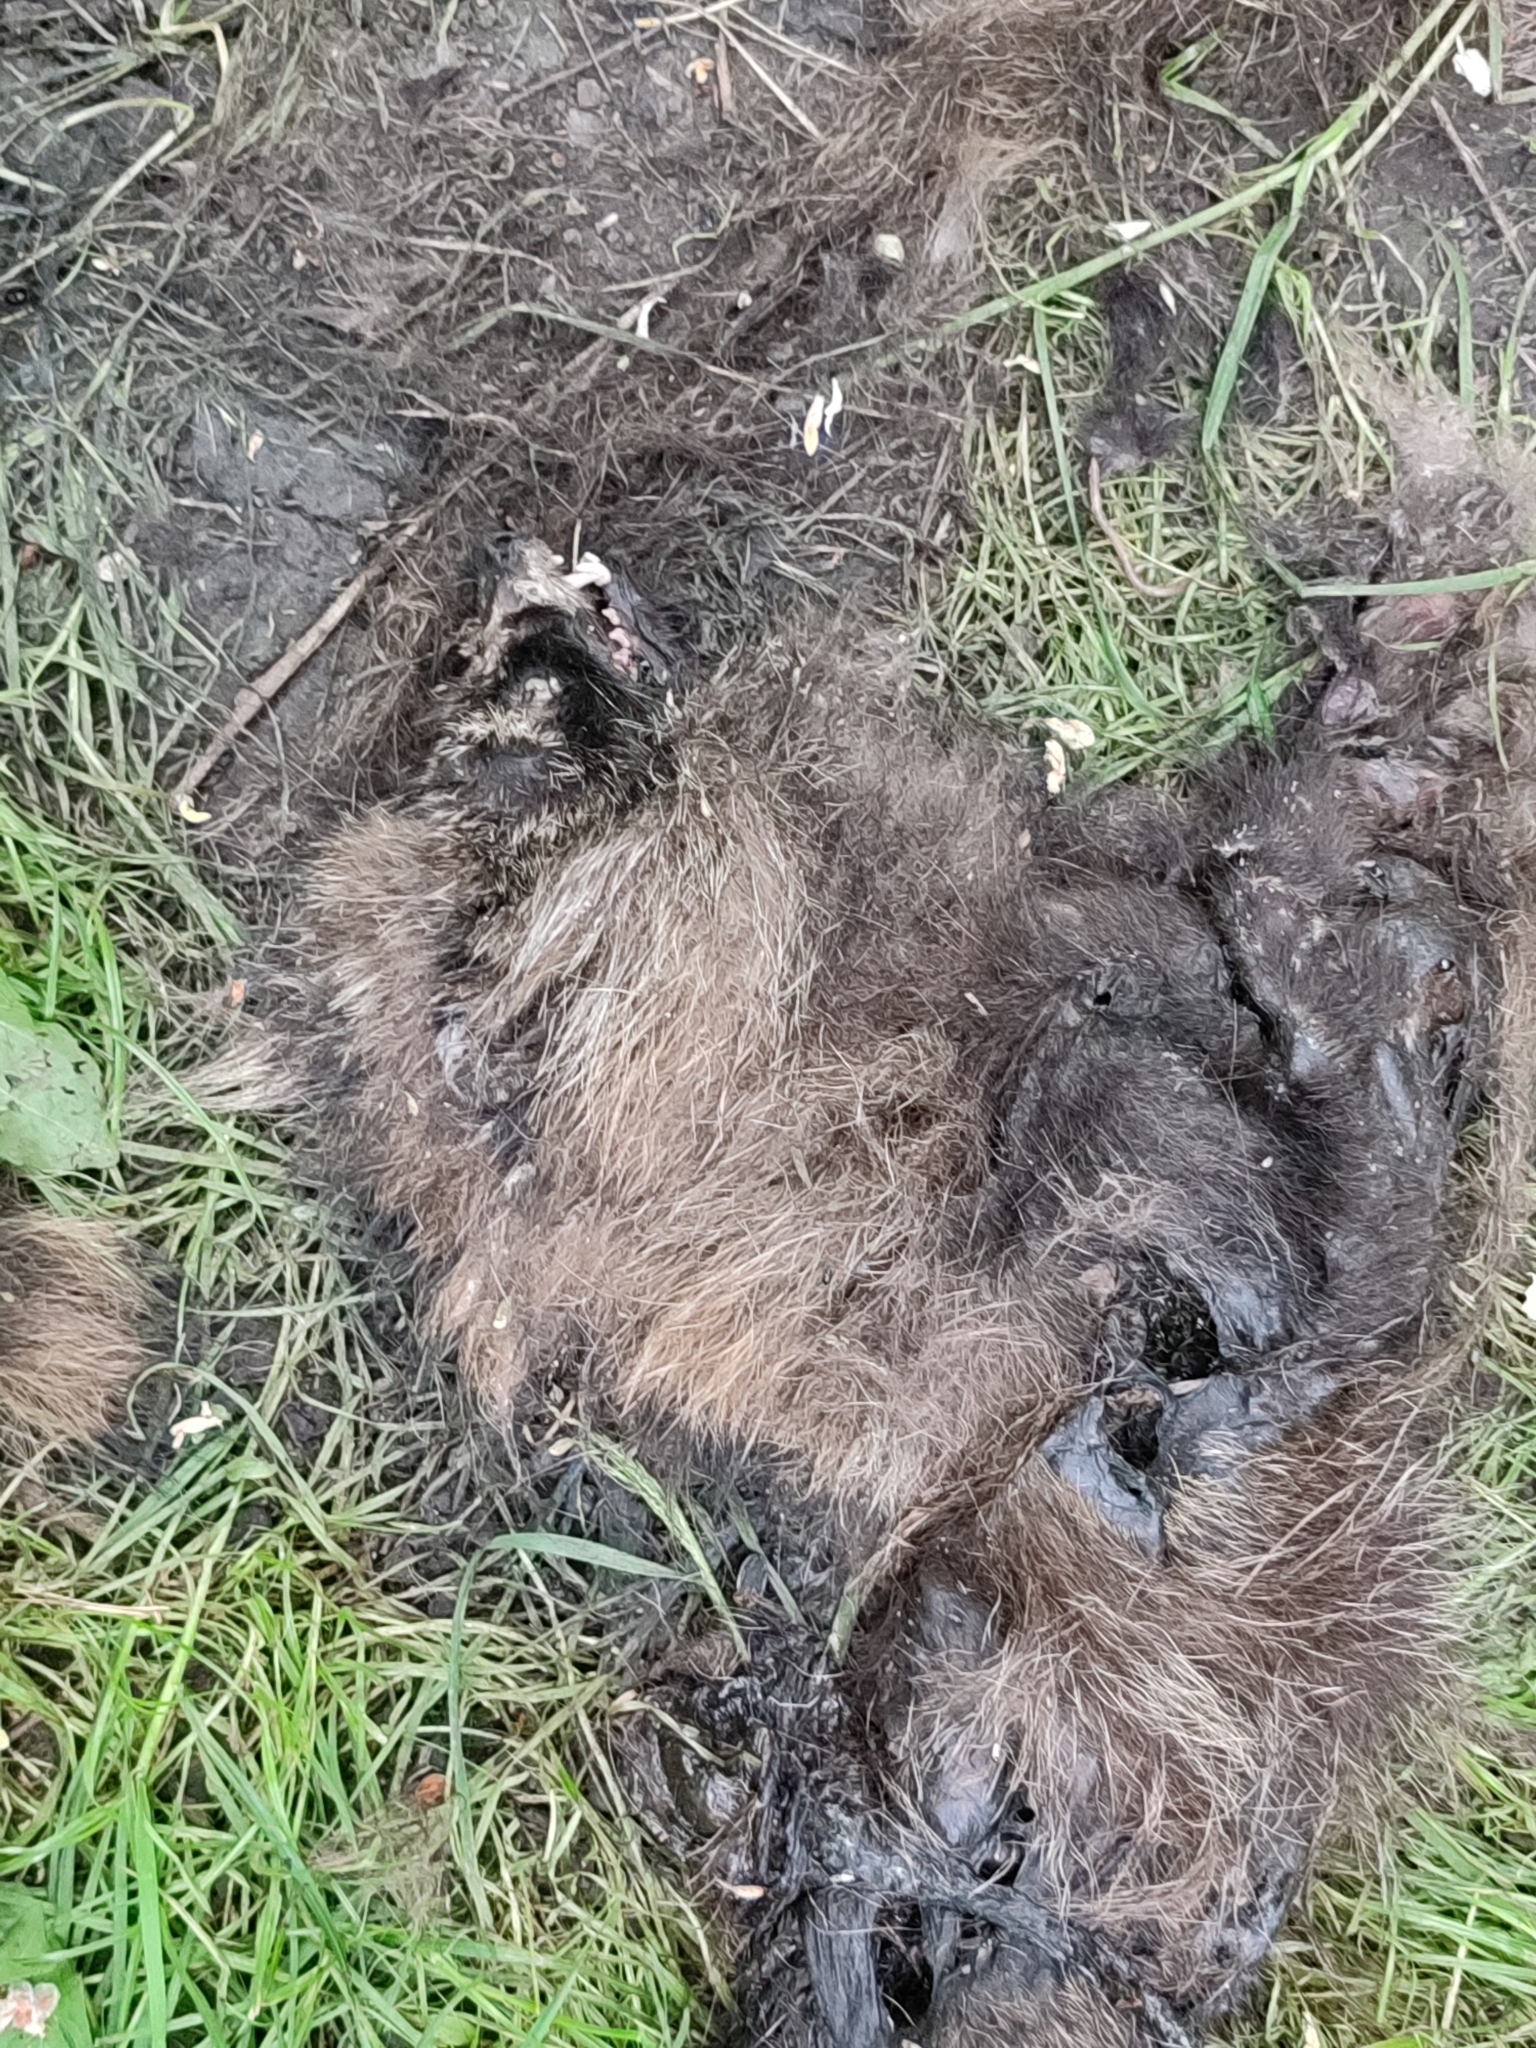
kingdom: Animalia
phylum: Chordata
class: Mammalia
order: Carnivora
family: Canidae
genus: Nyctereutes
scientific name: Nyctereutes procyonoides
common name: Raccoon dog
